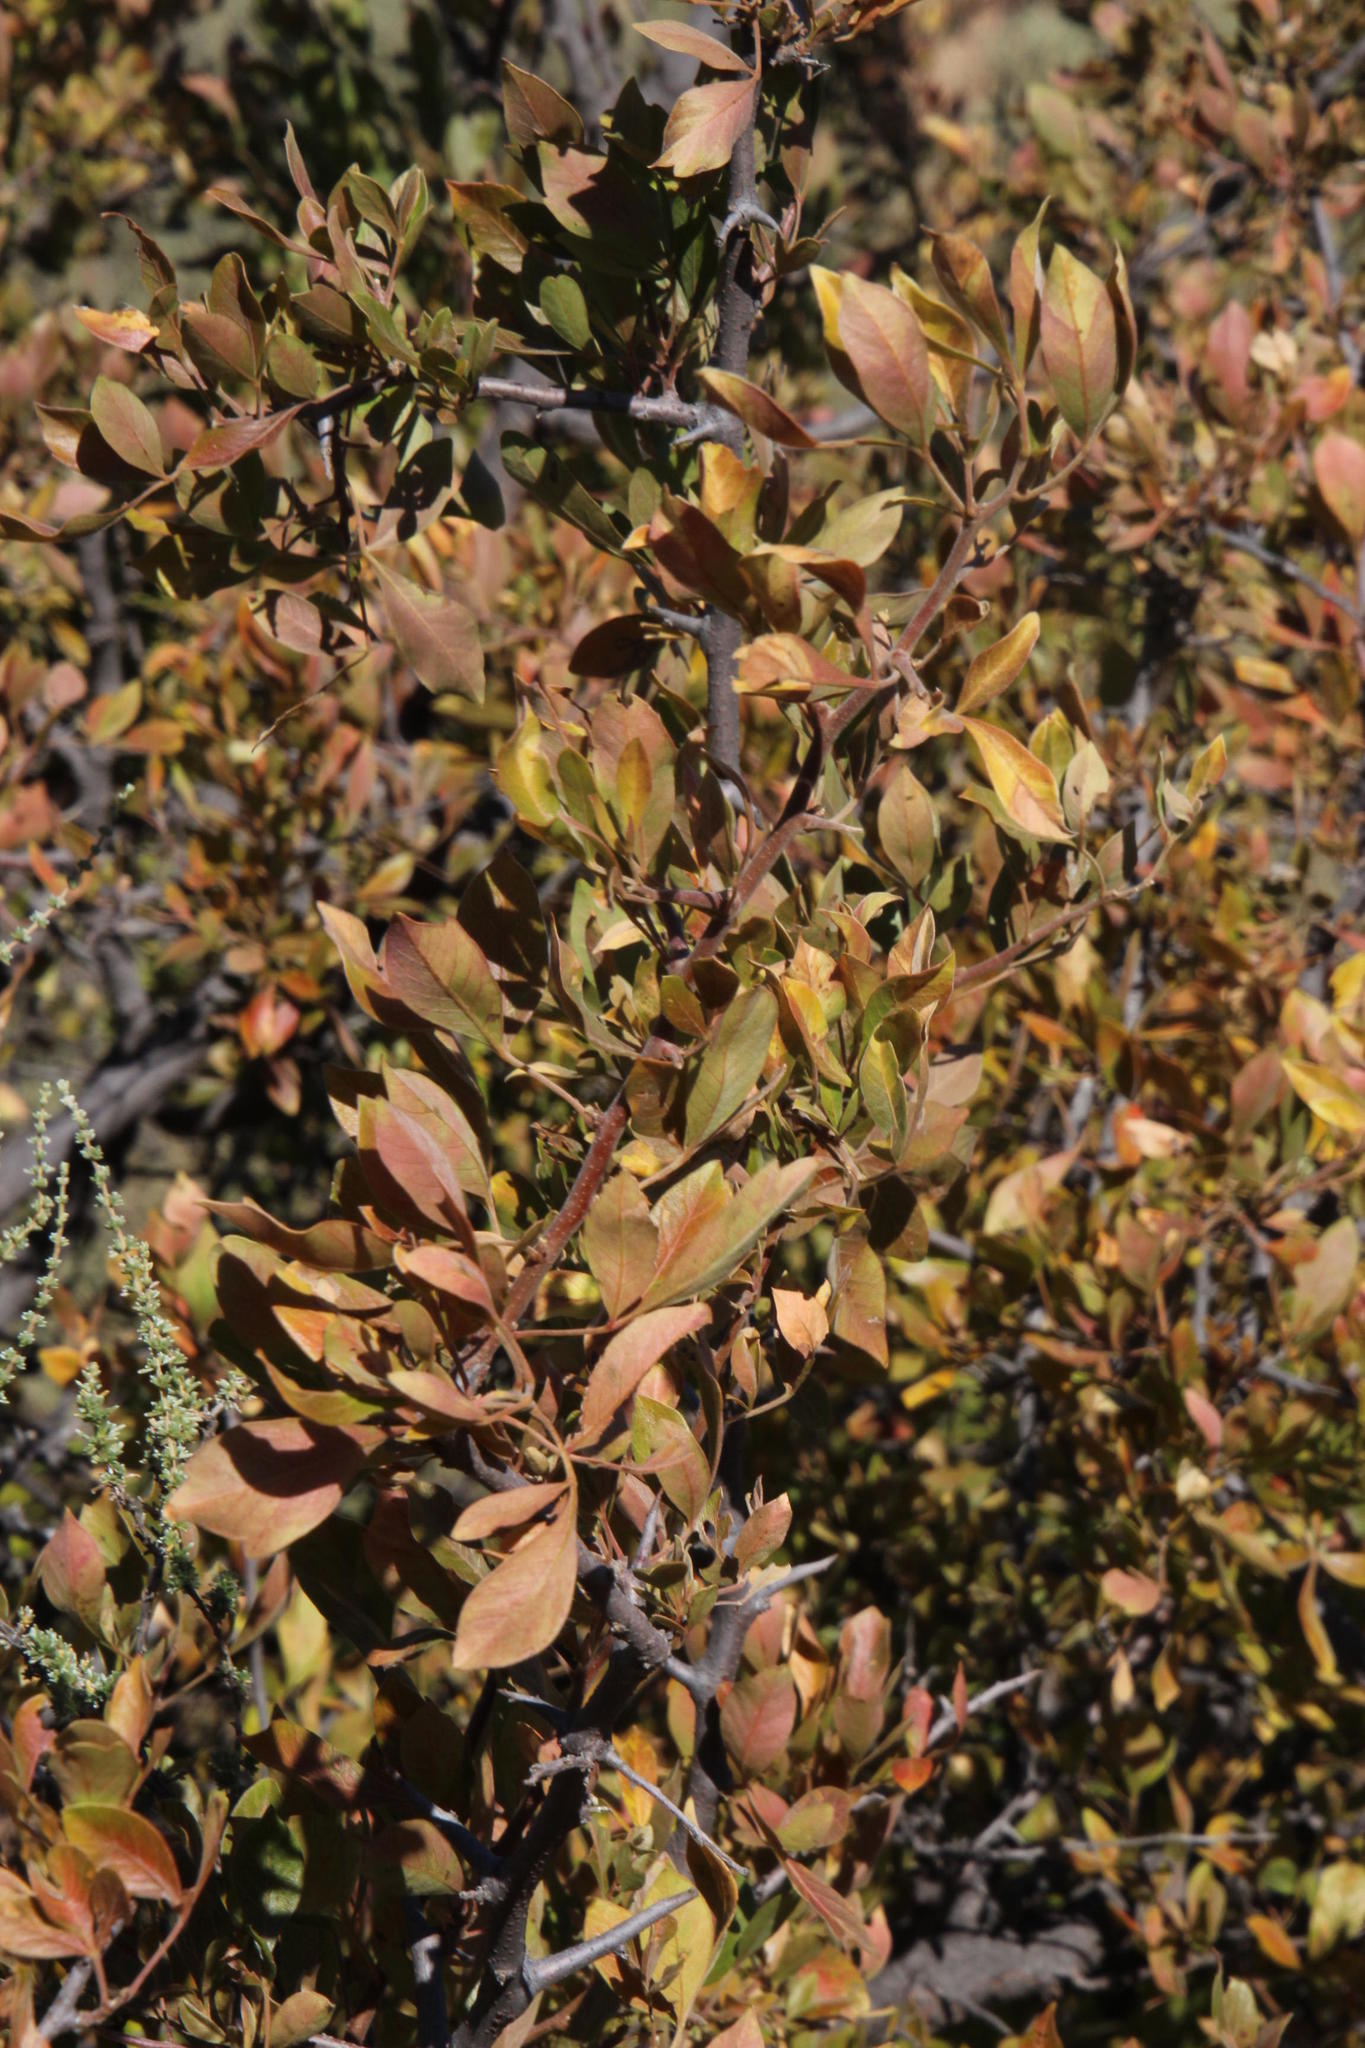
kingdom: Plantae
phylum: Tracheophyta
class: Magnoliopsida
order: Sapindales
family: Anacardiaceae
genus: Searsia
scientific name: Searsia pyroides
